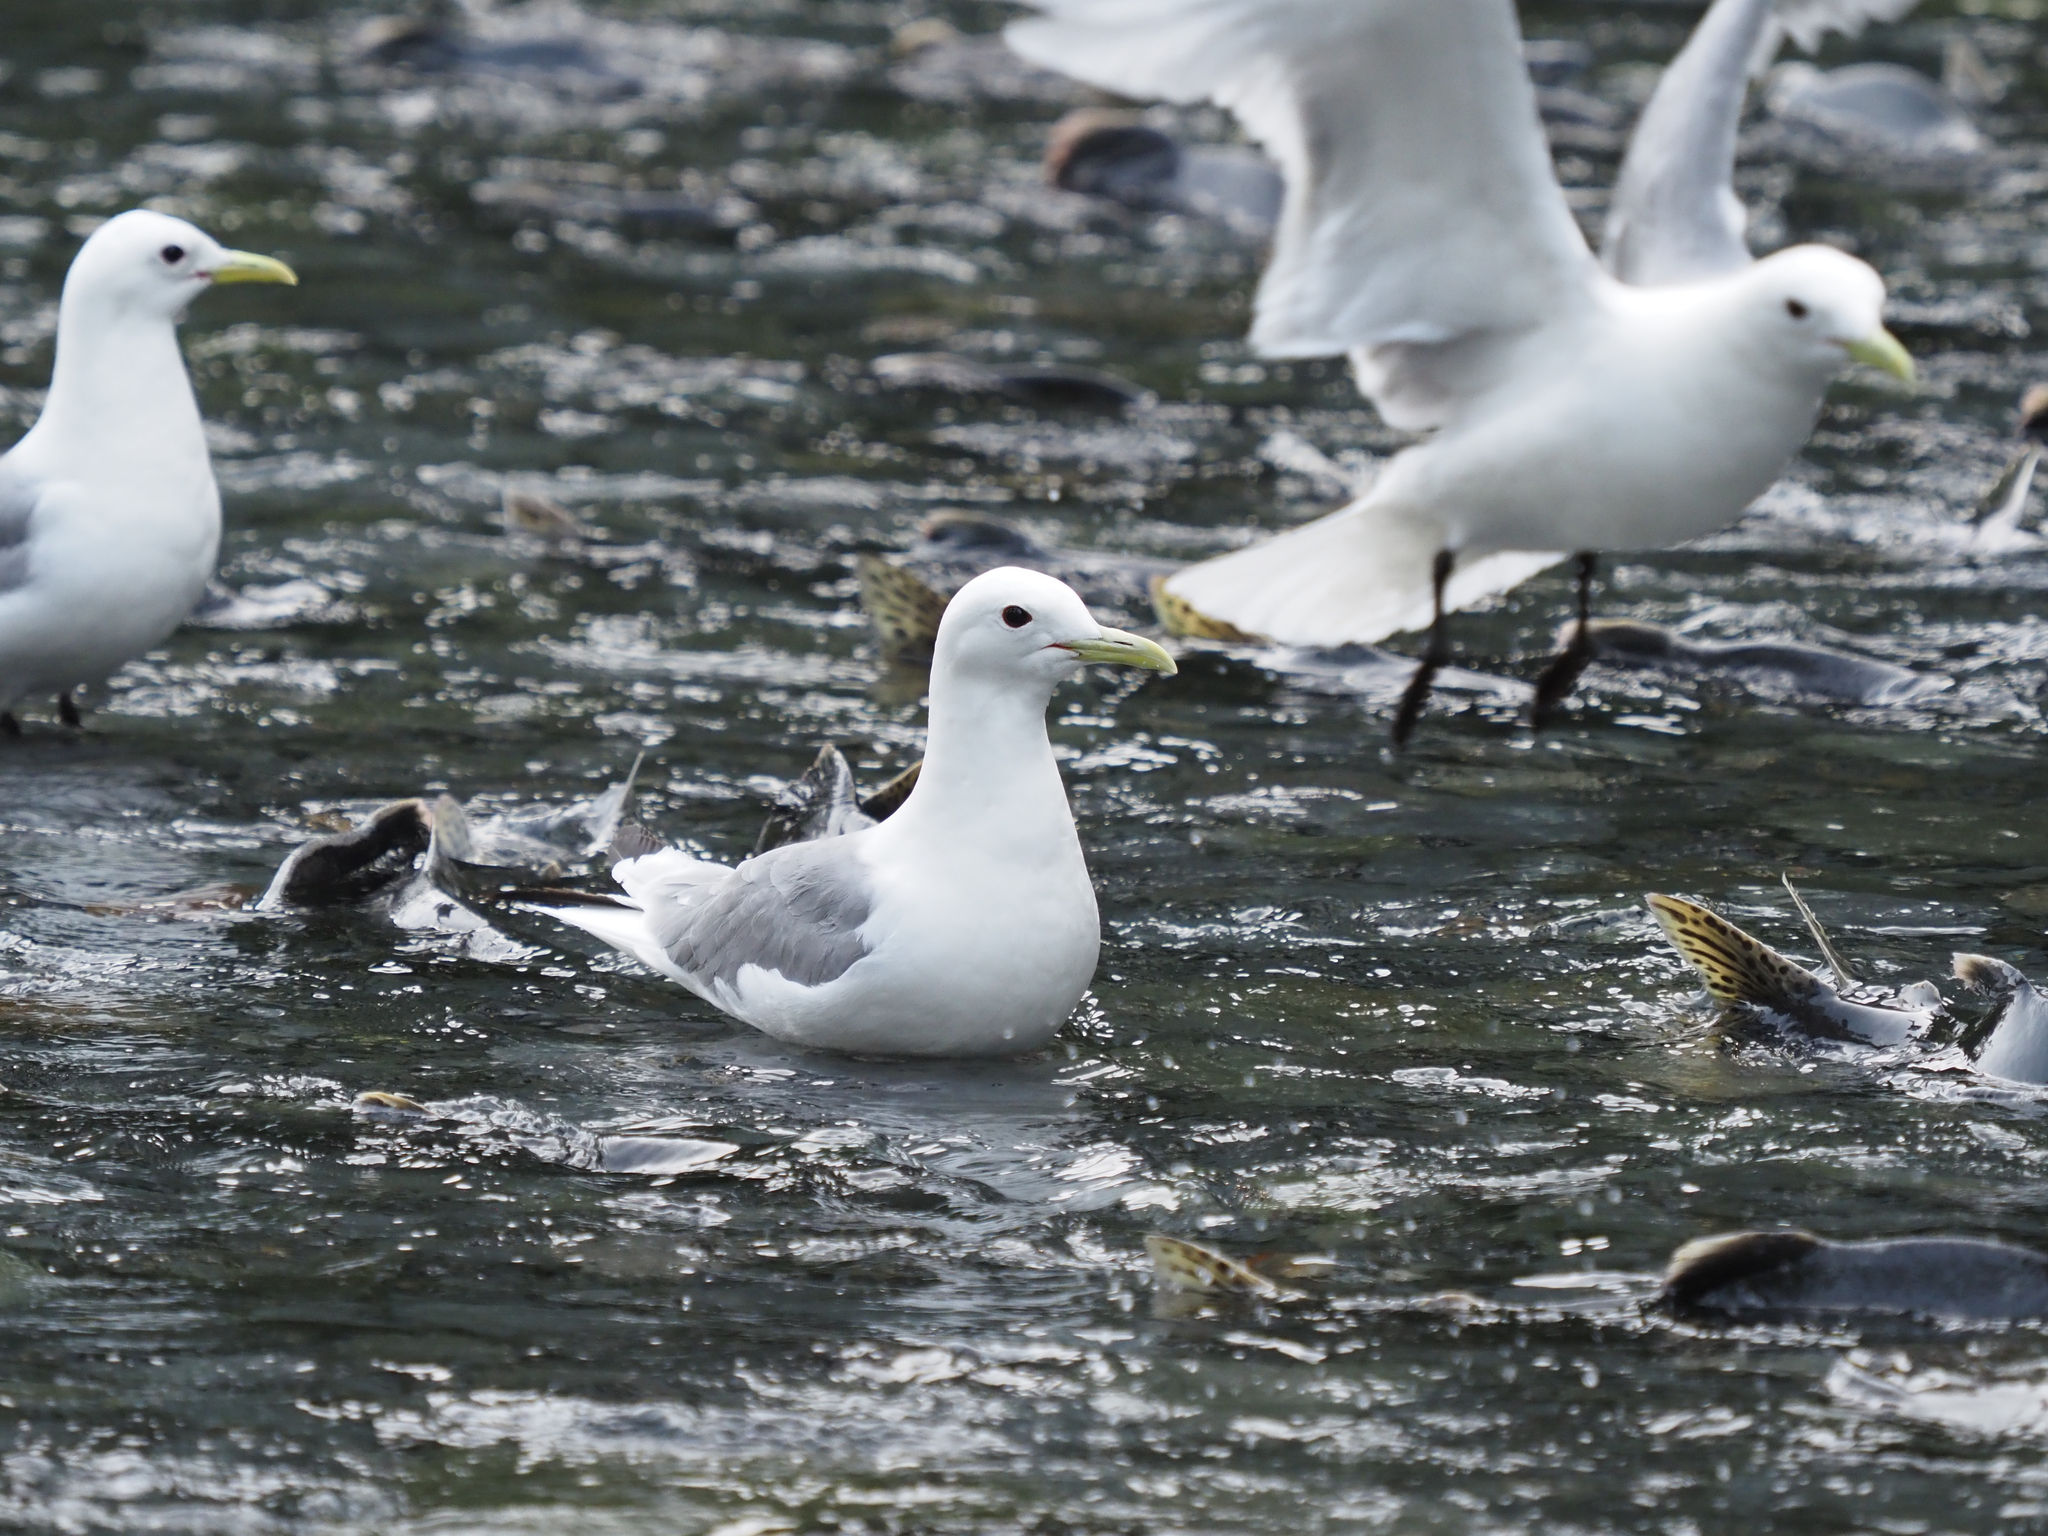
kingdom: Animalia
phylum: Chordata
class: Aves
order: Charadriiformes
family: Laridae
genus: Rissa
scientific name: Rissa tridactyla
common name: Black-legged kittiwake
